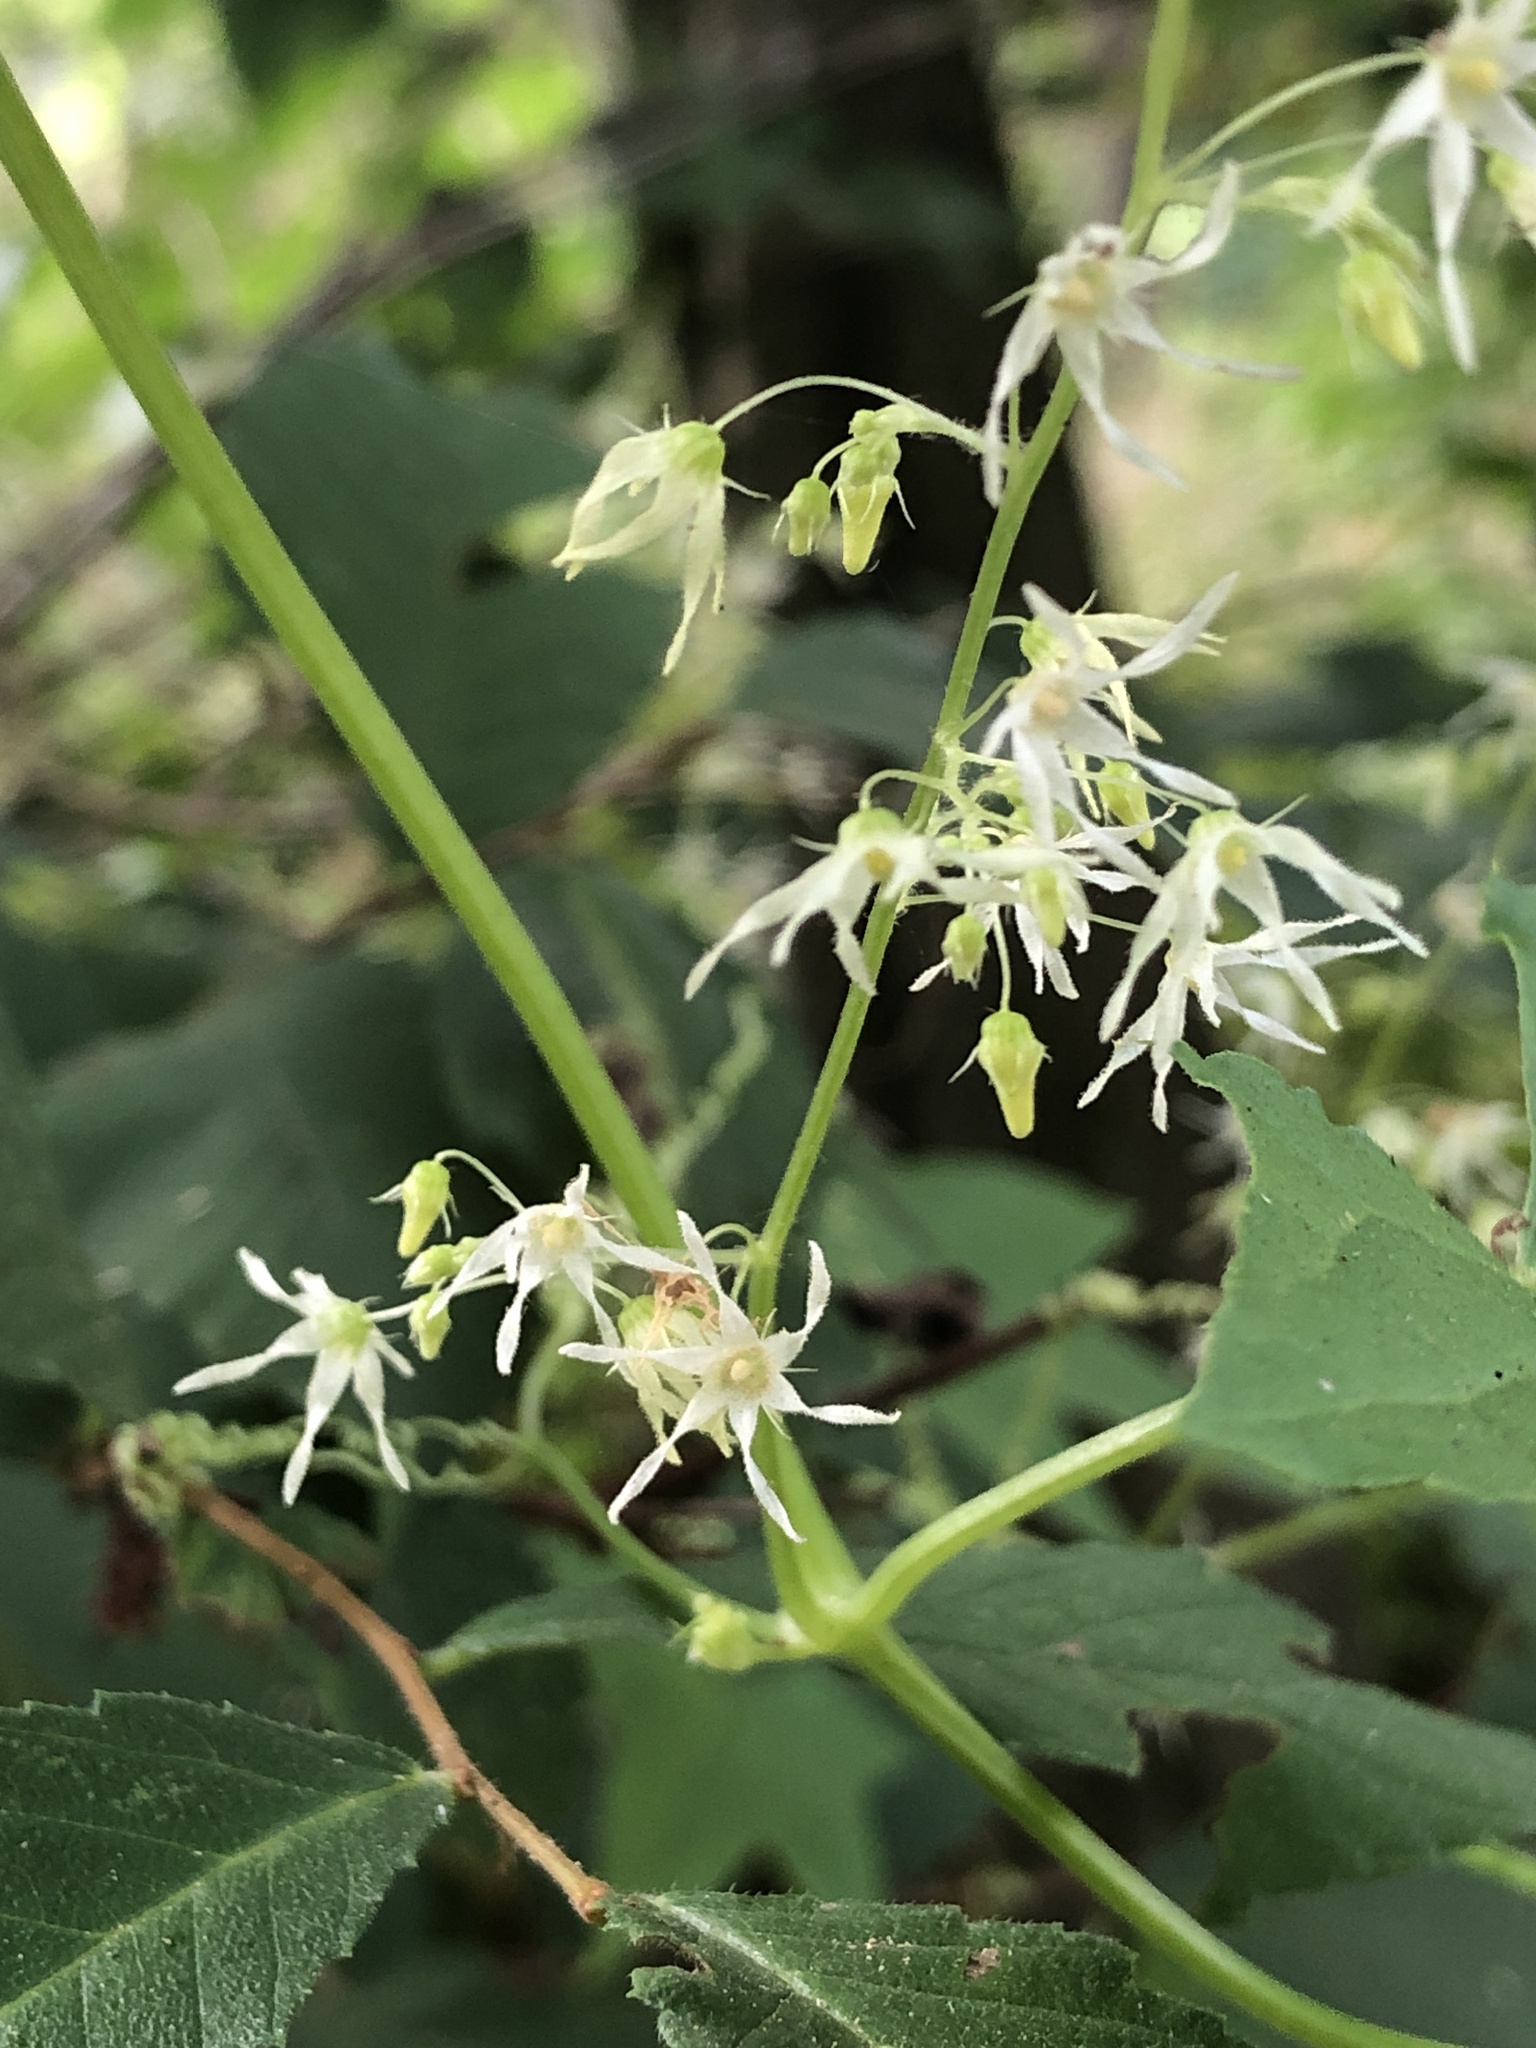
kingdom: Plantae
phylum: Tracheophyta
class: Magnoliopsida
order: Cucurbitales
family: Cucurbitaceae
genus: Echinocystis
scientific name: Echinocystis lobata
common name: Wild cucumber
